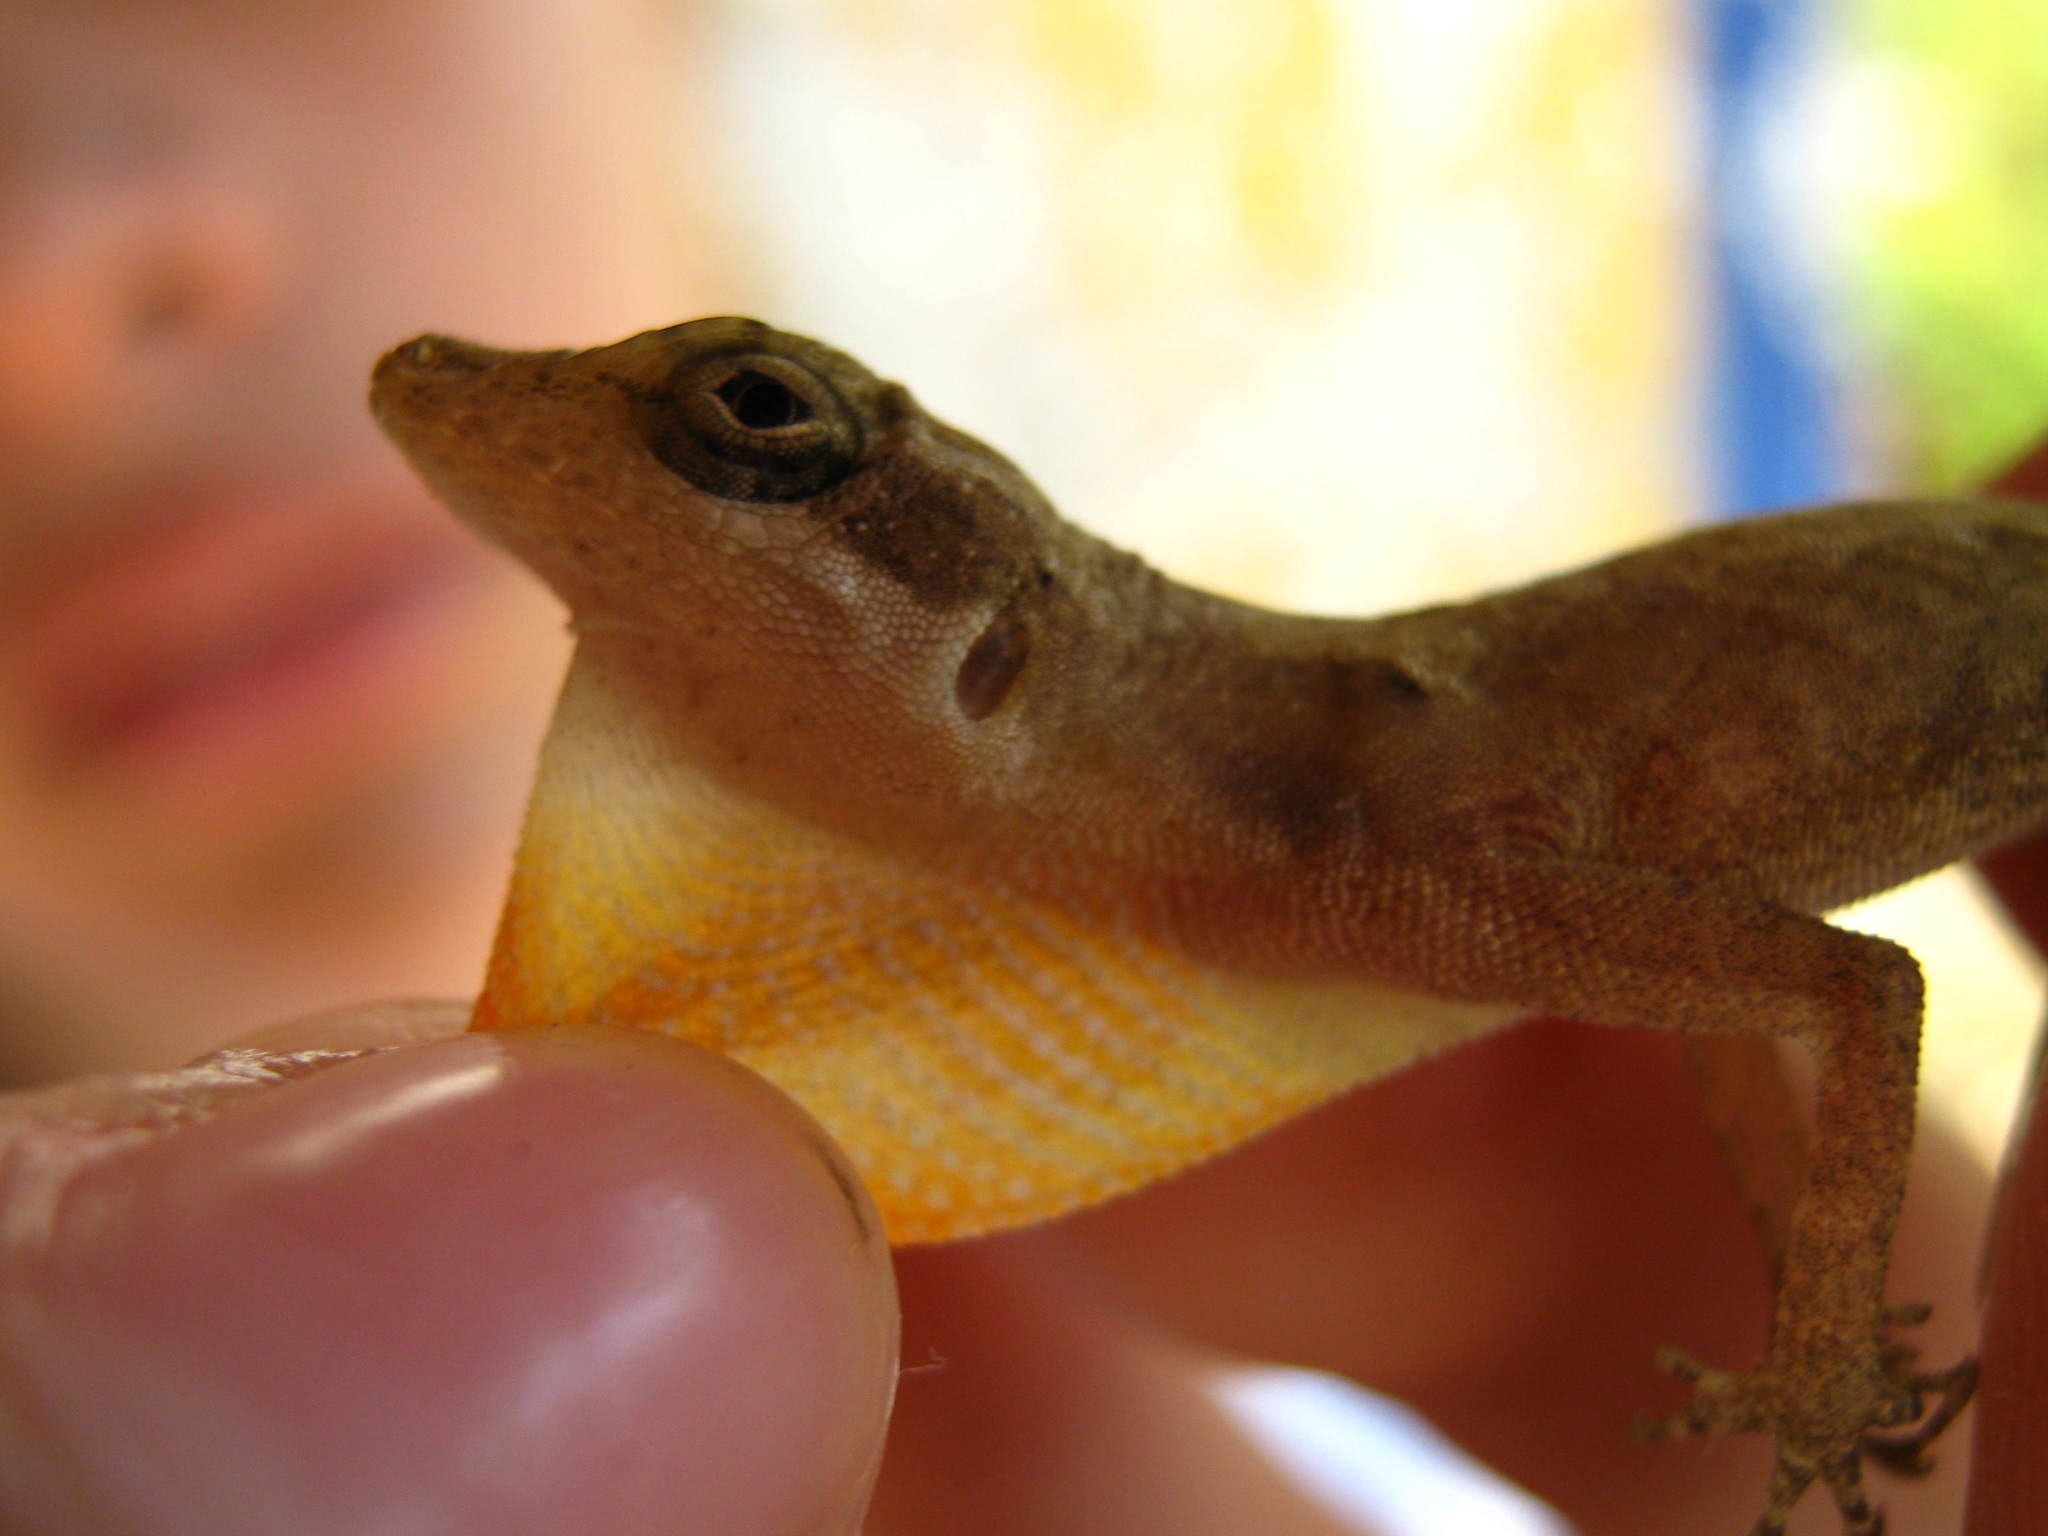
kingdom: Animalia
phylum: Chordata
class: Squamata
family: Dactyloidae
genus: Anolis
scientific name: Anolis rodriguezii
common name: Middle american smooth anole
